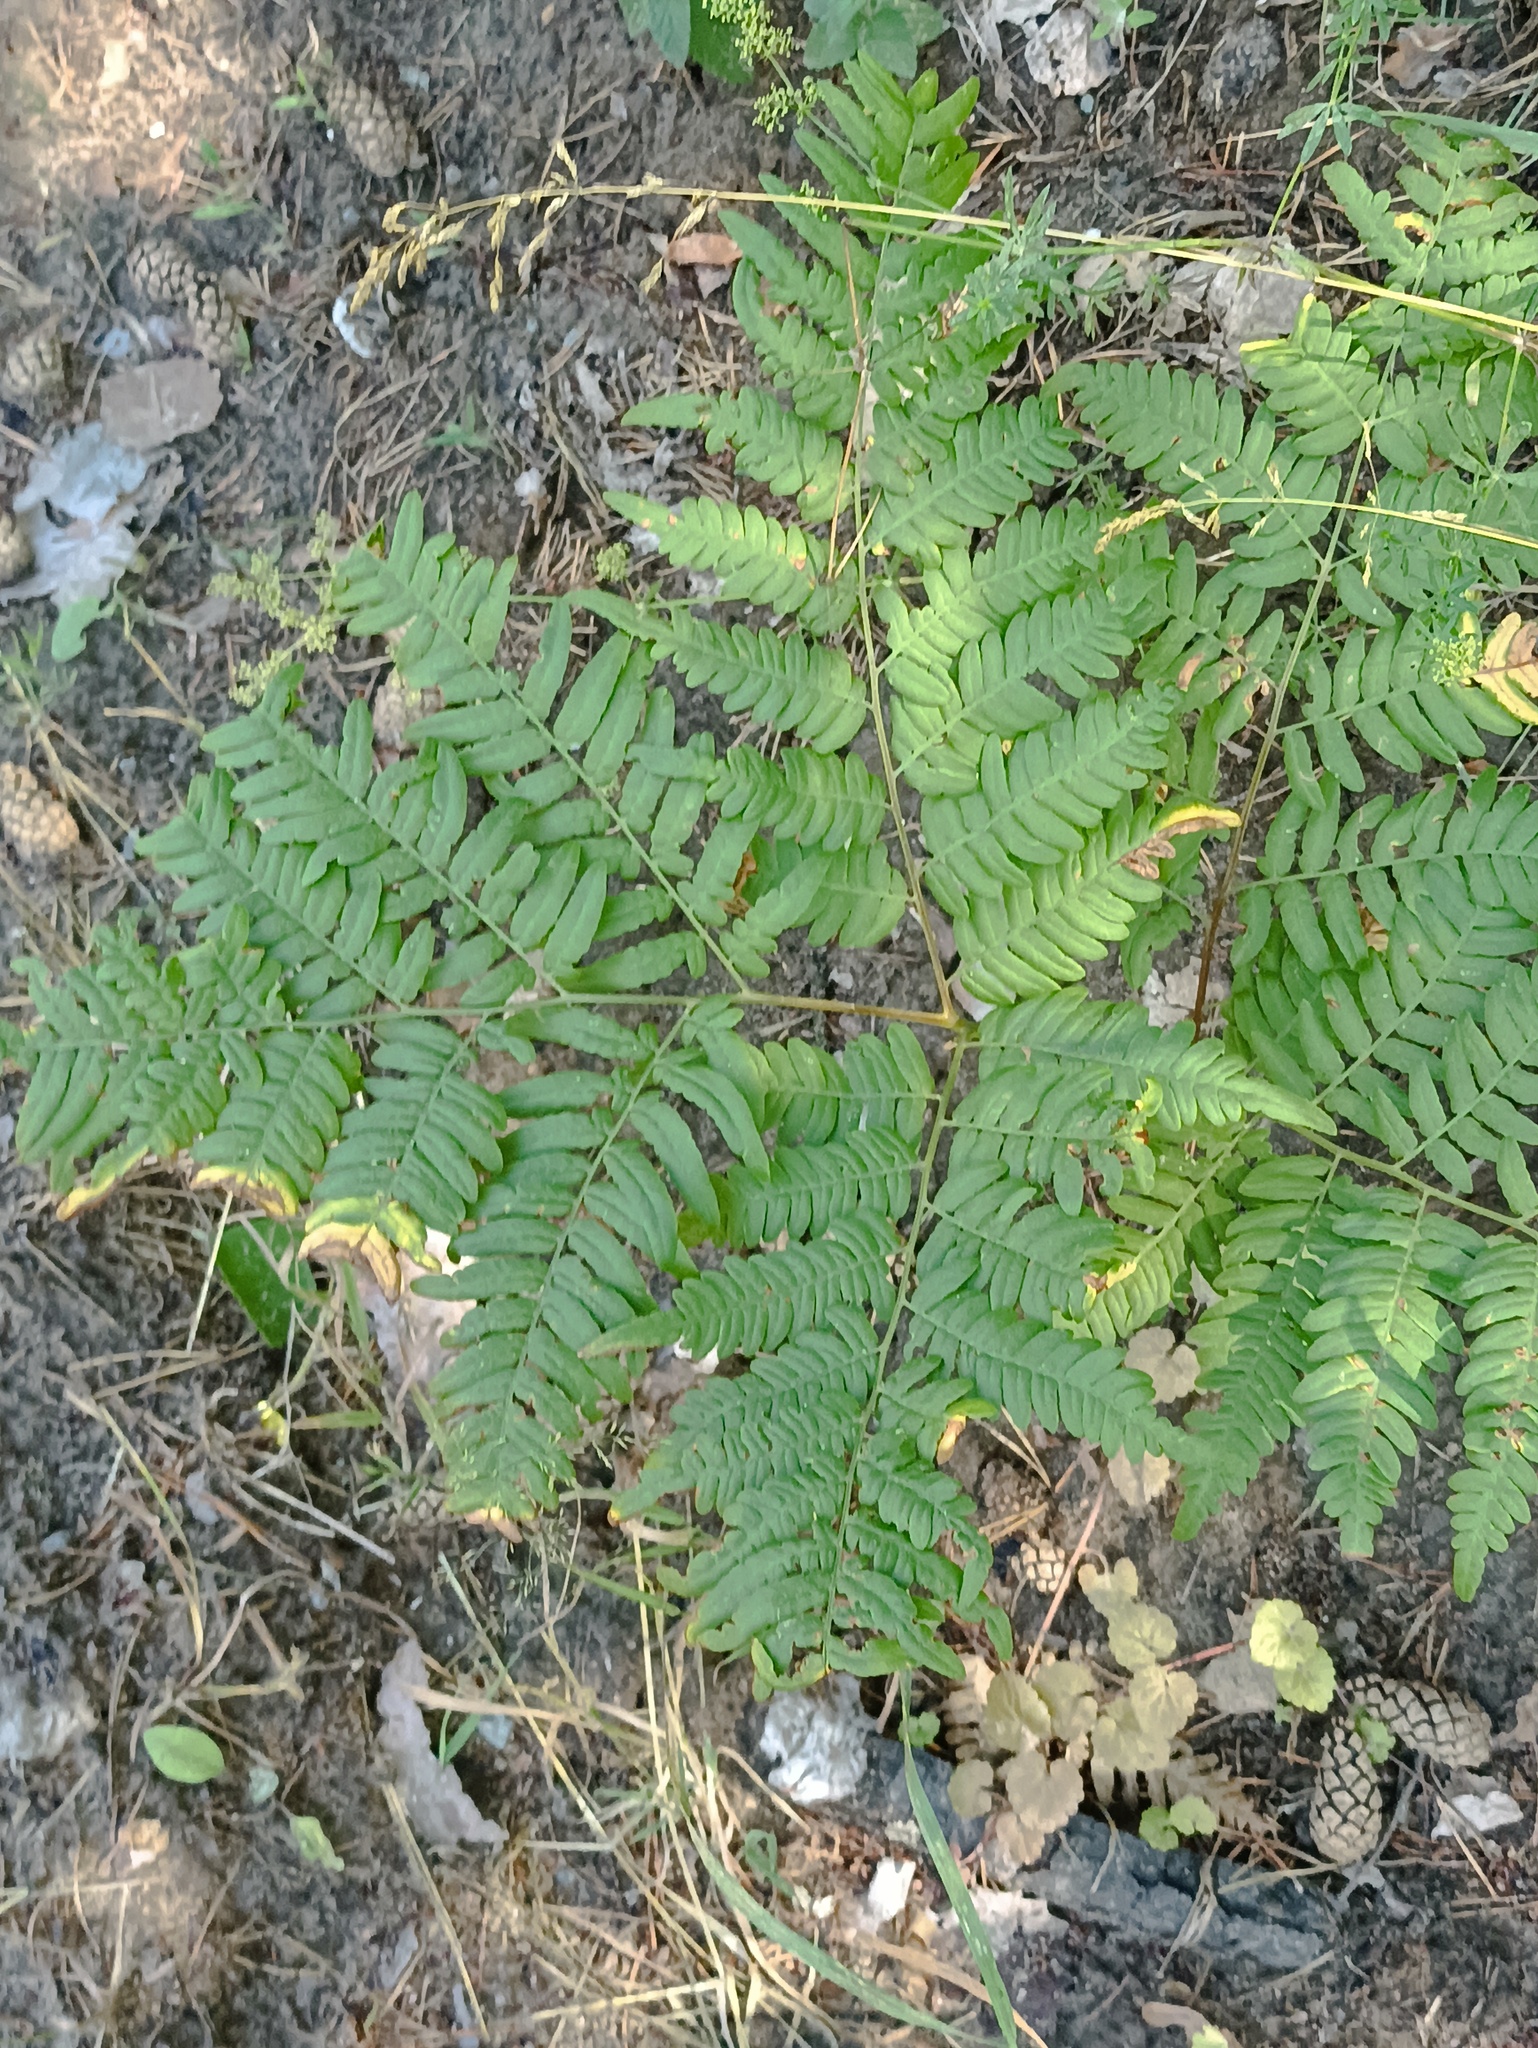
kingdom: Plantae
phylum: Tracheophyta
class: Polypodiopsida
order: Polypodiales
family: Dennstaedtiaceae
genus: Pteridium
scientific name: Pteridium aquilinum
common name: Bracken
